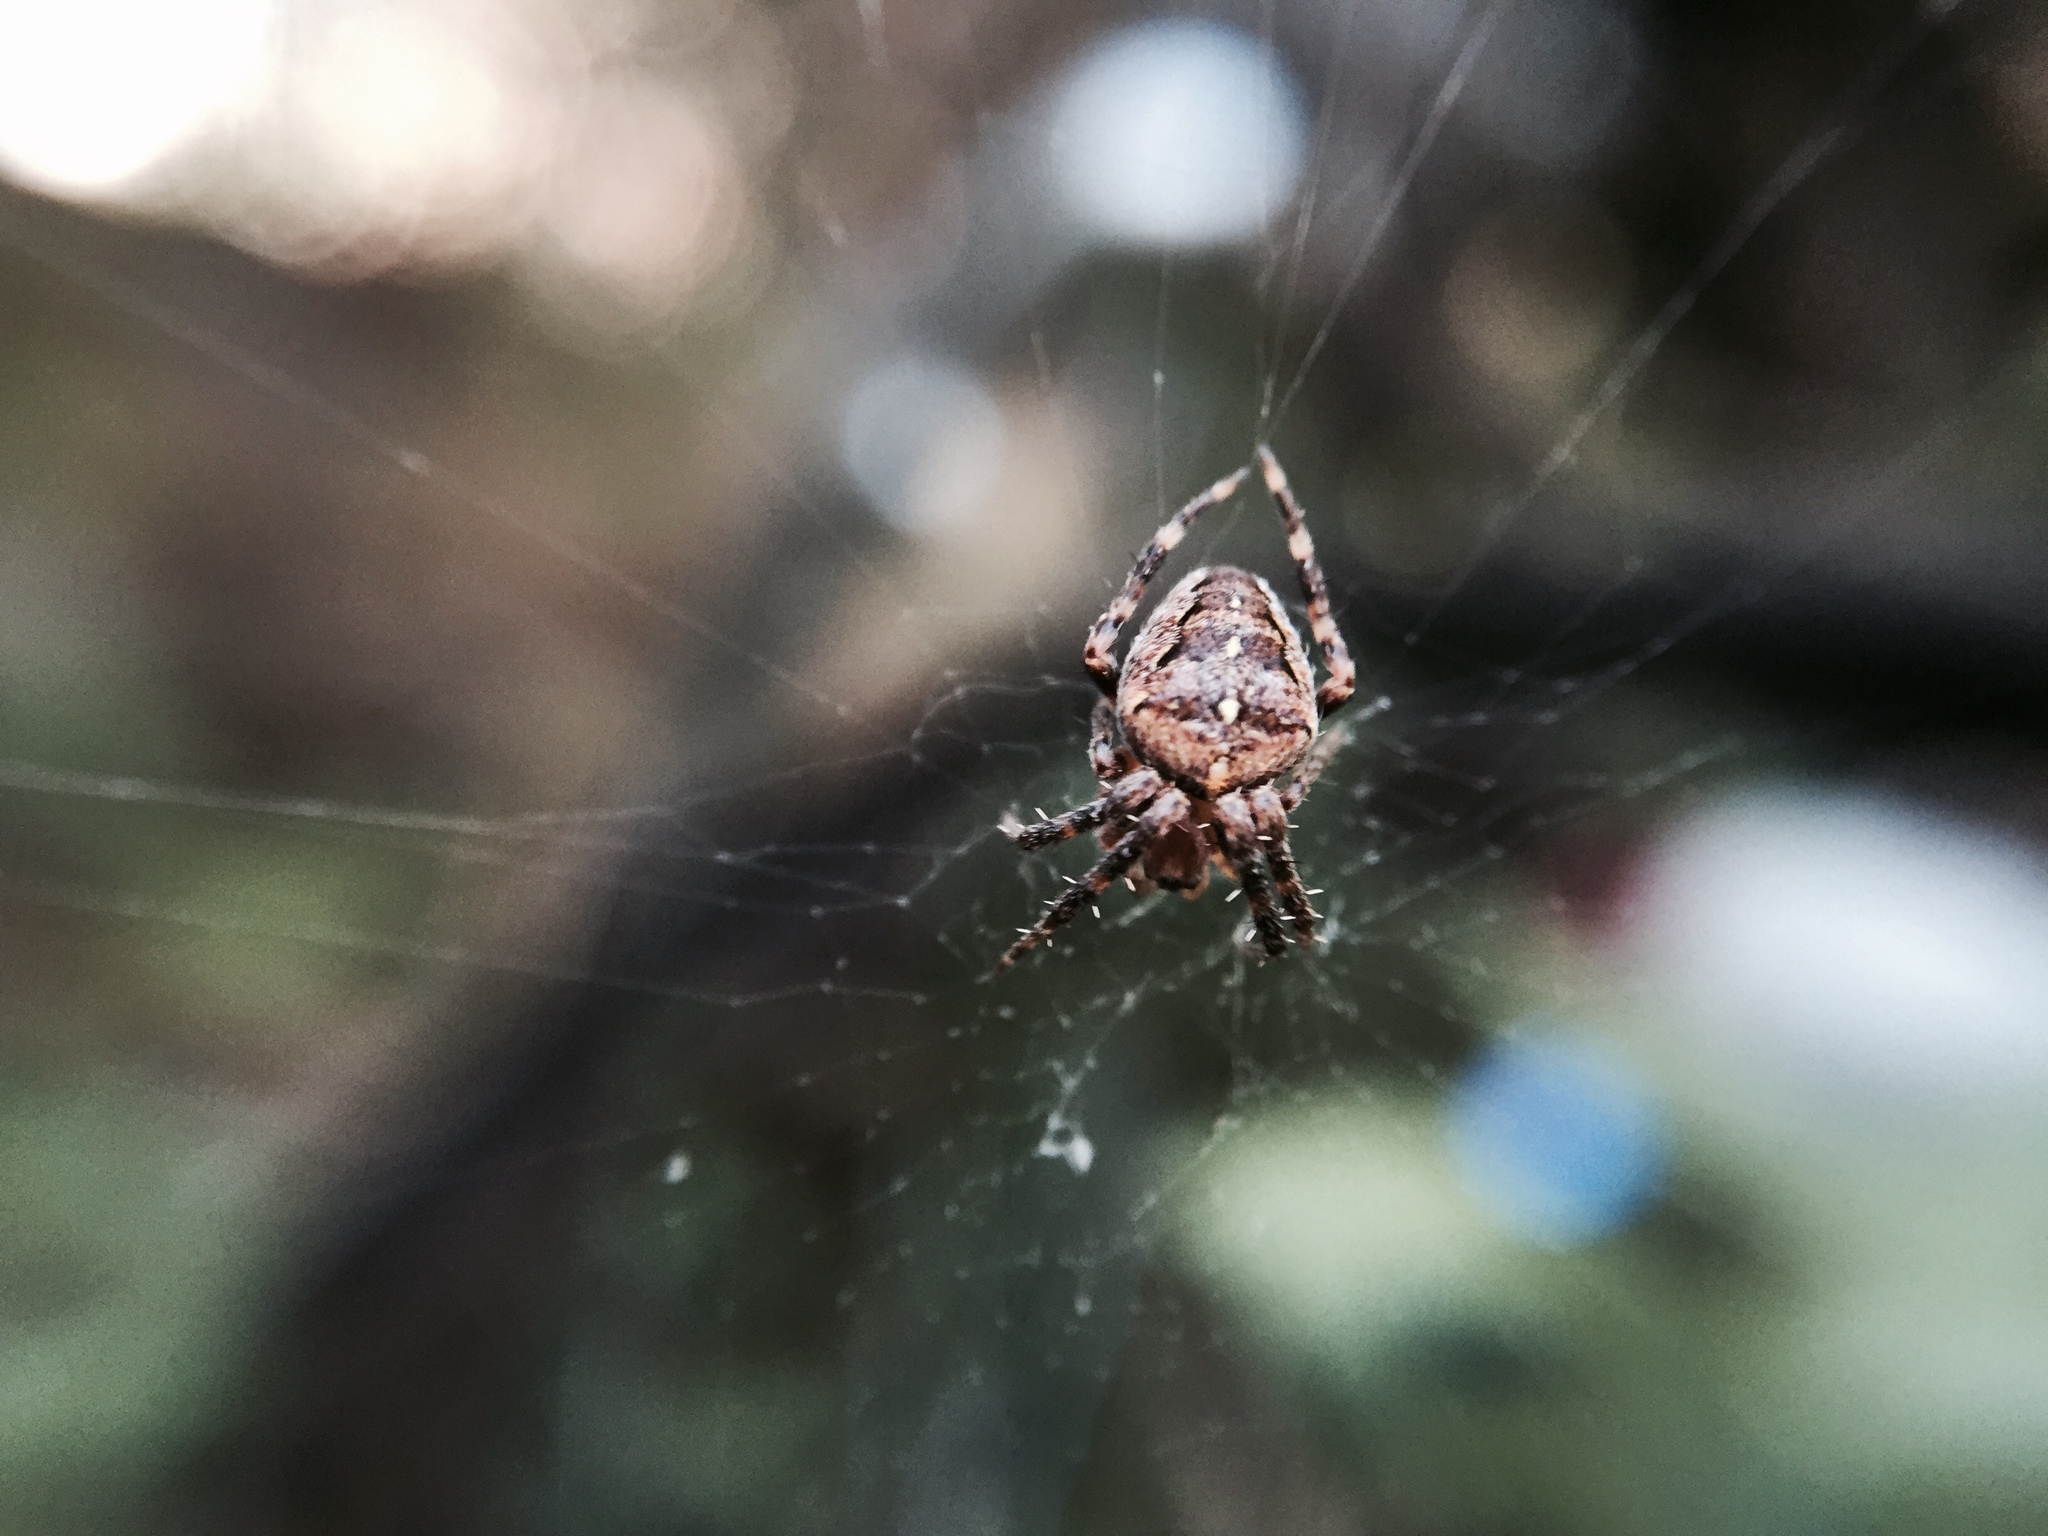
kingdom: Animalia
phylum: Arthropoda
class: Arachnida
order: Araneae
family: Araneidae
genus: Araneus
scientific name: Araneus diadematus
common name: Cross orbweaver
